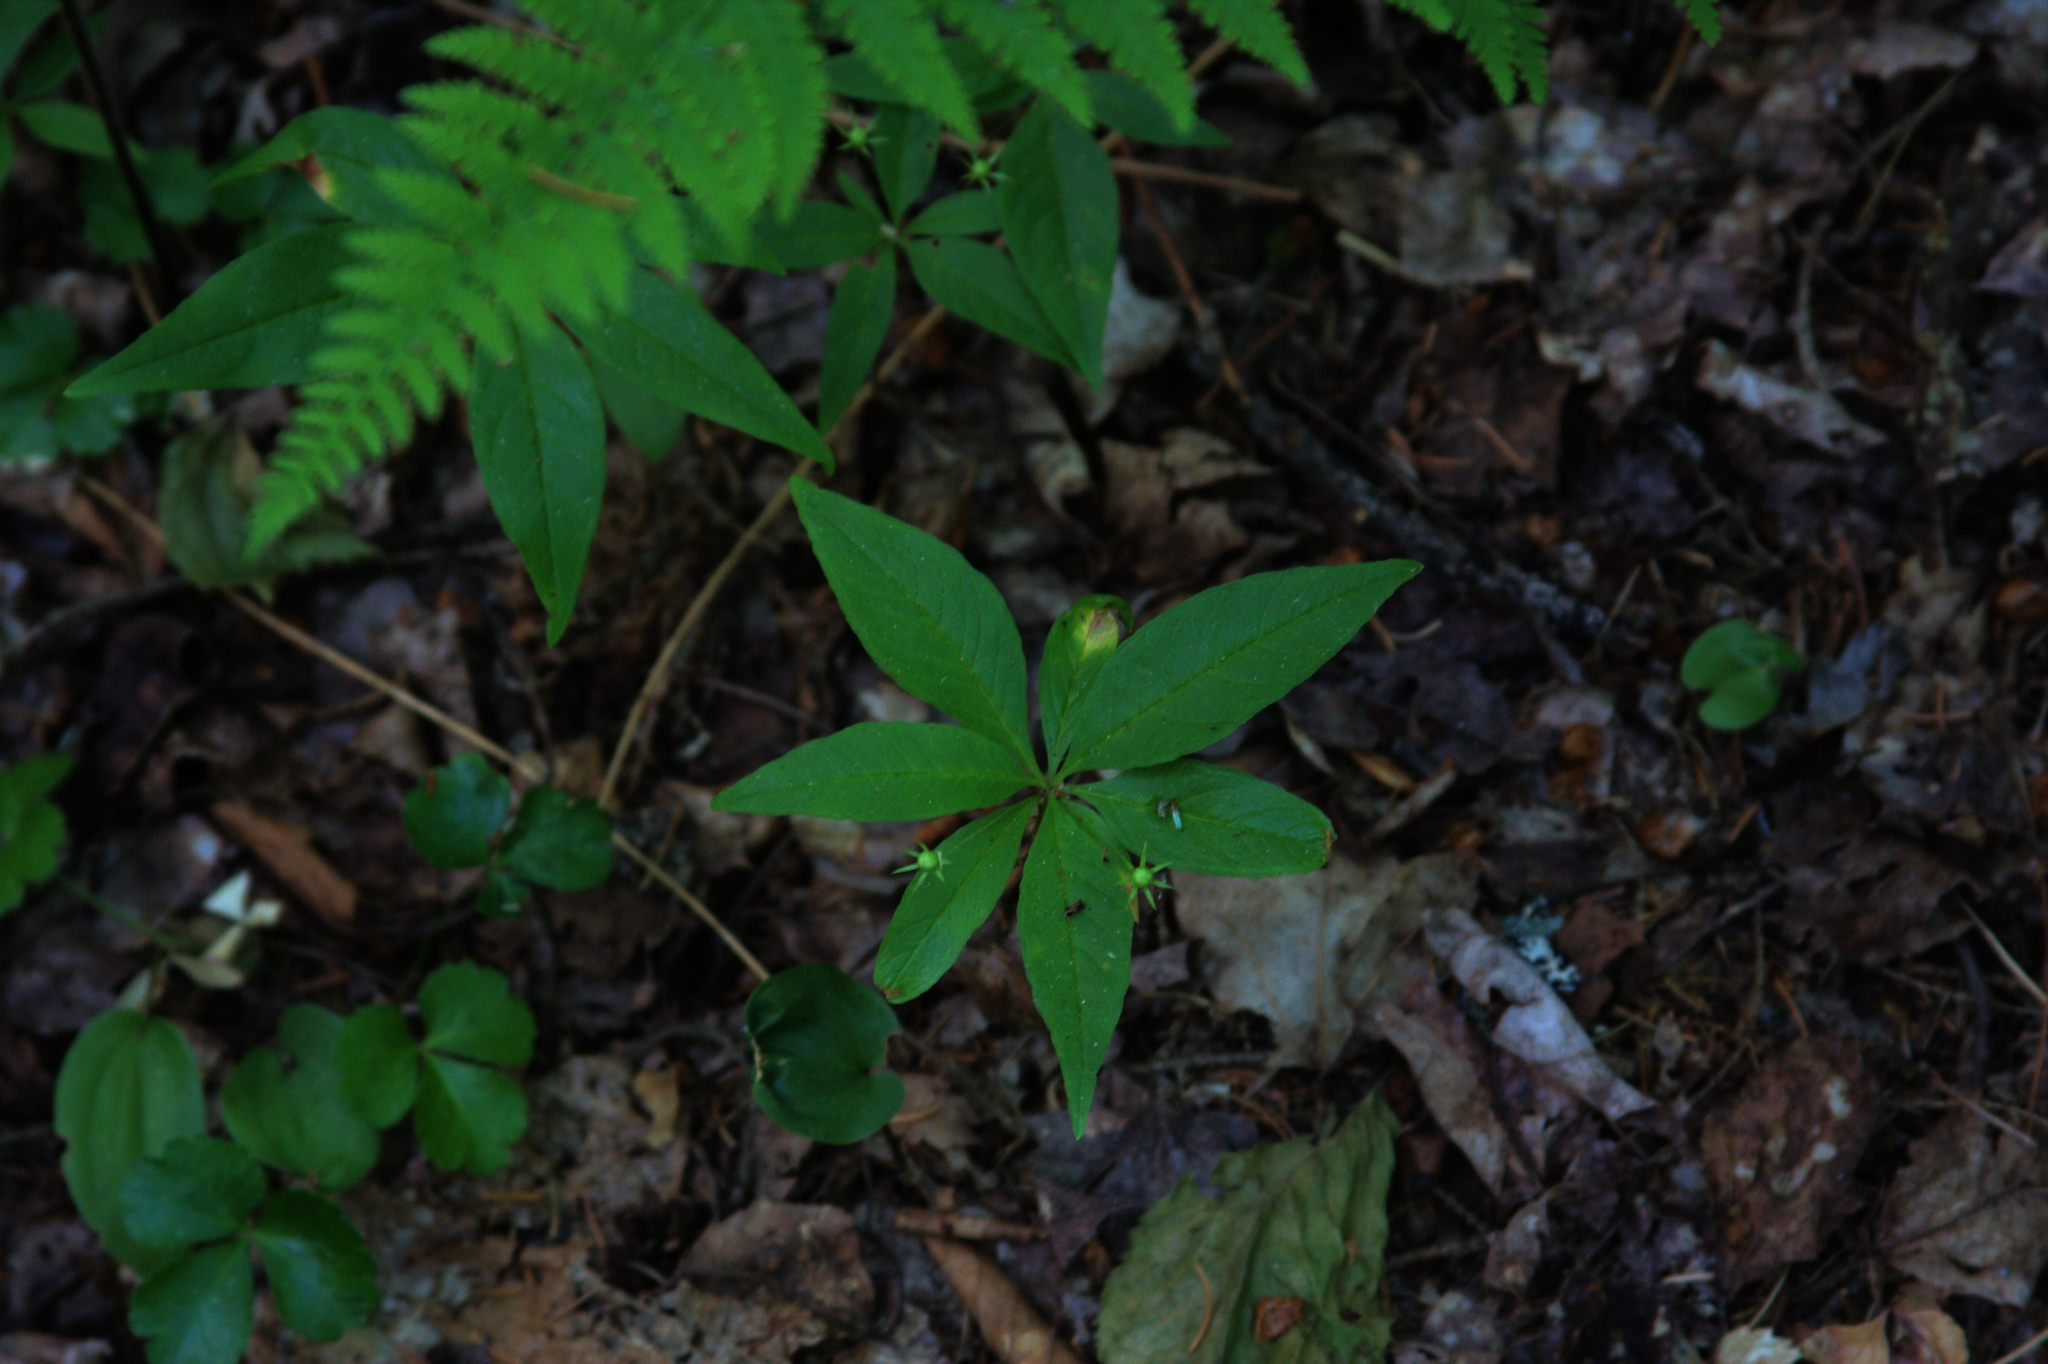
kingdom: Plantae
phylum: Tracheophyta
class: Magnoliopsida
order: Ericales
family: Primulaceae
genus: Lysimachia
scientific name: Lysimachia borealis
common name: American starflower
